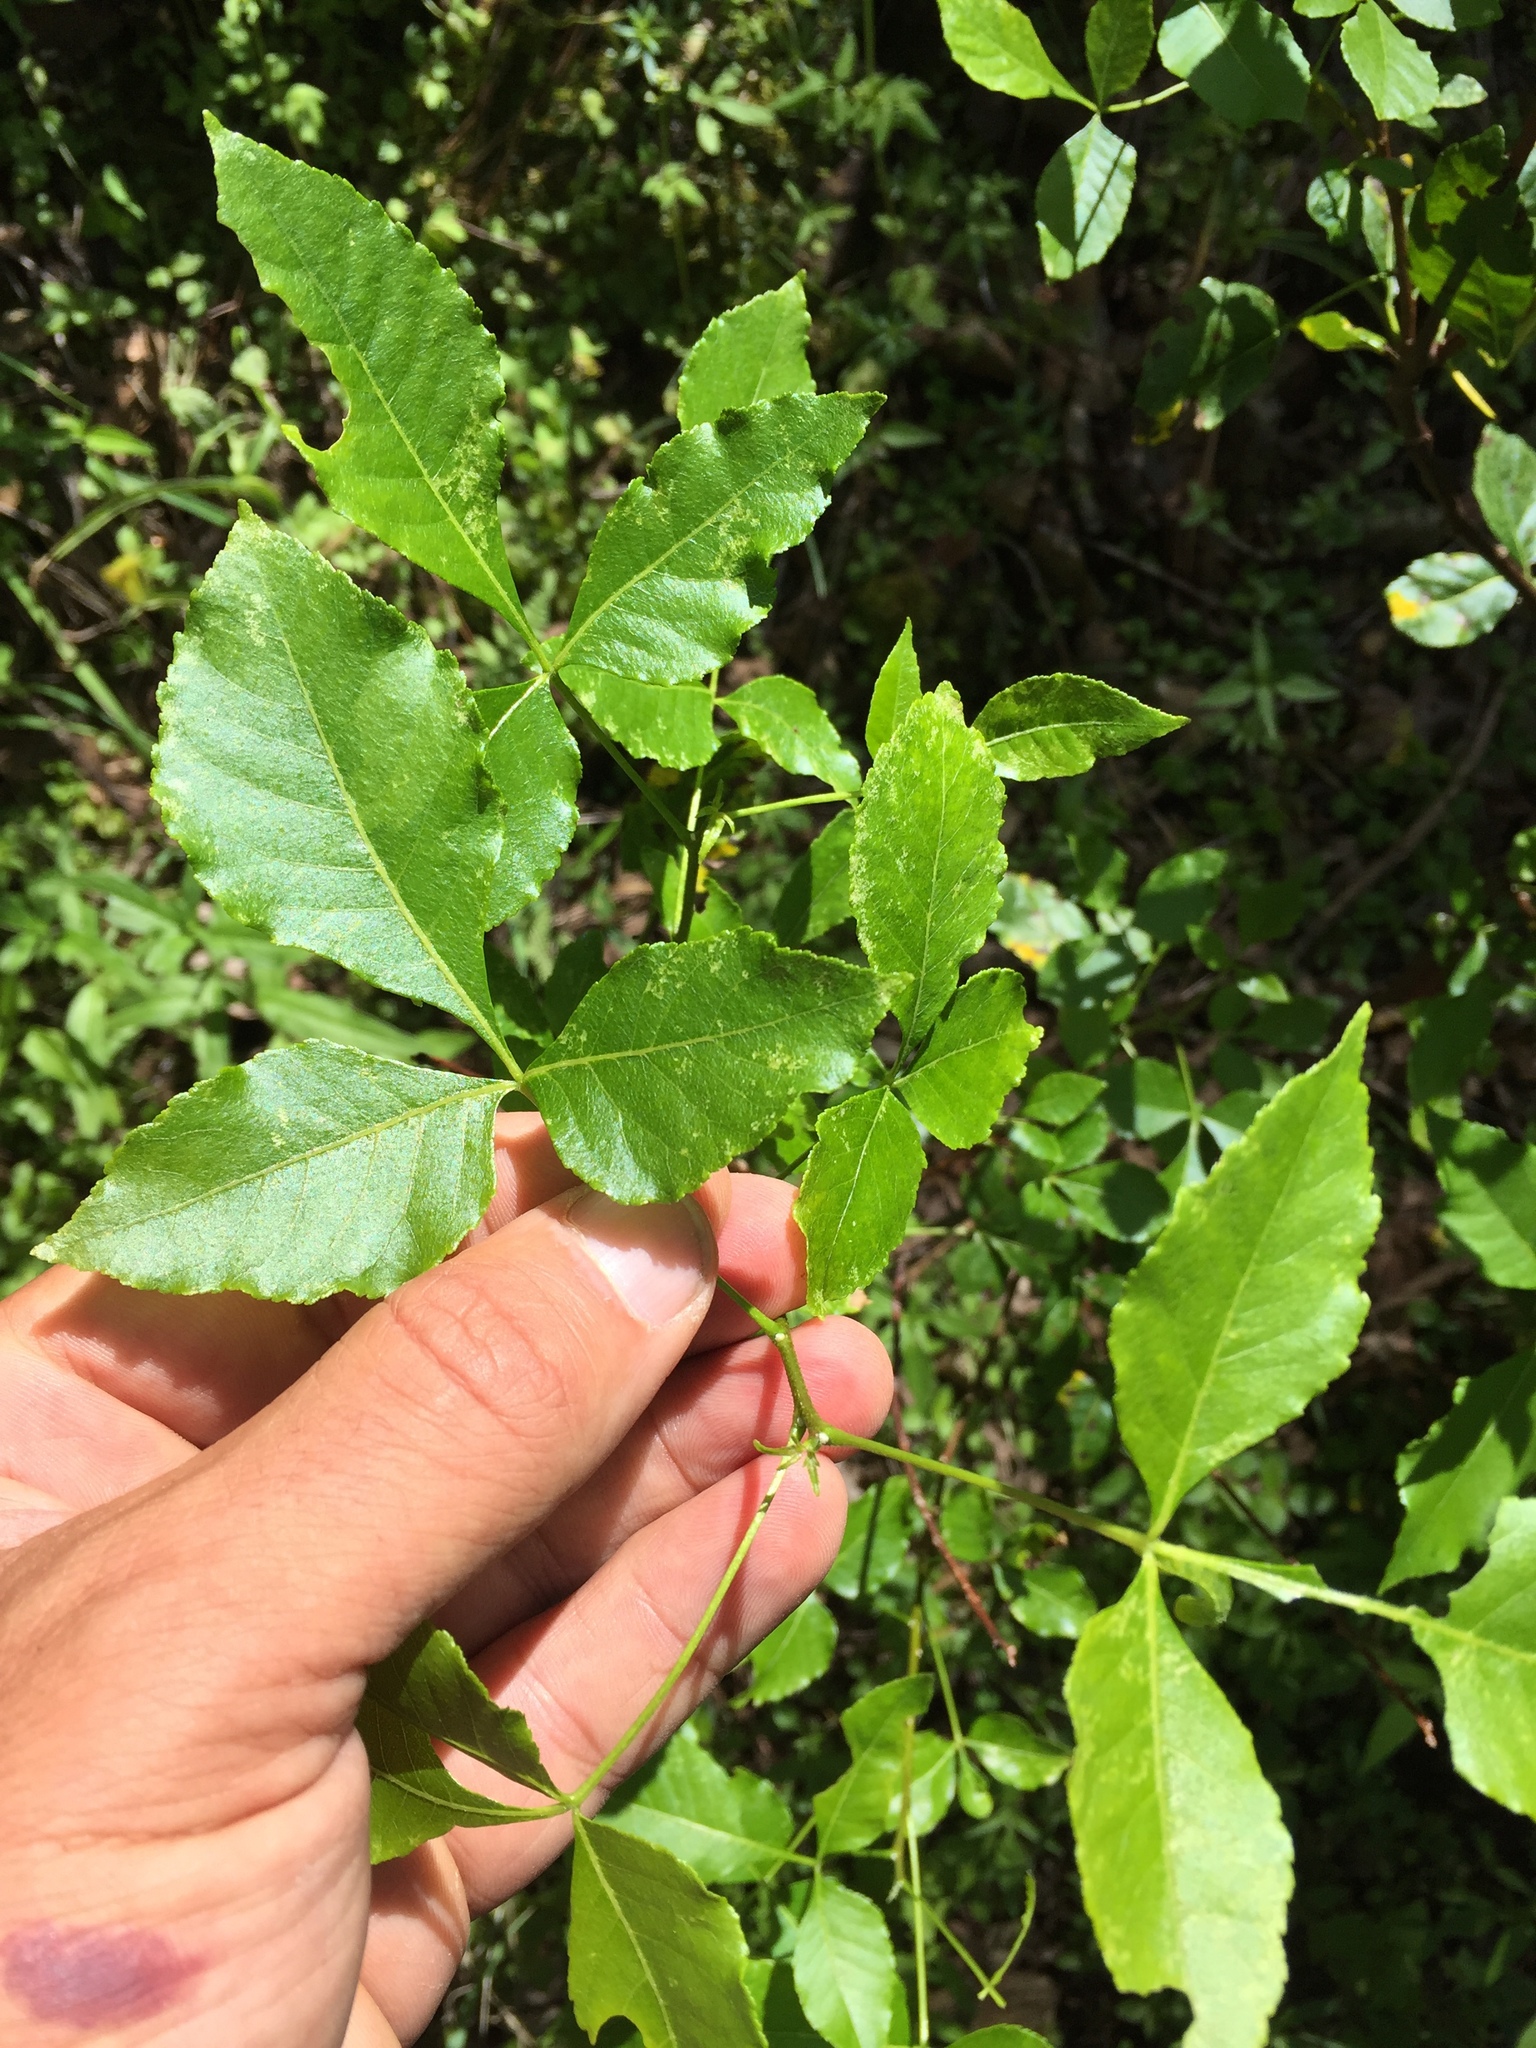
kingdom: Plantae
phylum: Tracheophyta
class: Magnoliopsida
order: Sapindales
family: Rutaceae
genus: Ptelea
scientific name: Ptelea trifoliata
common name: Common hop-tree
